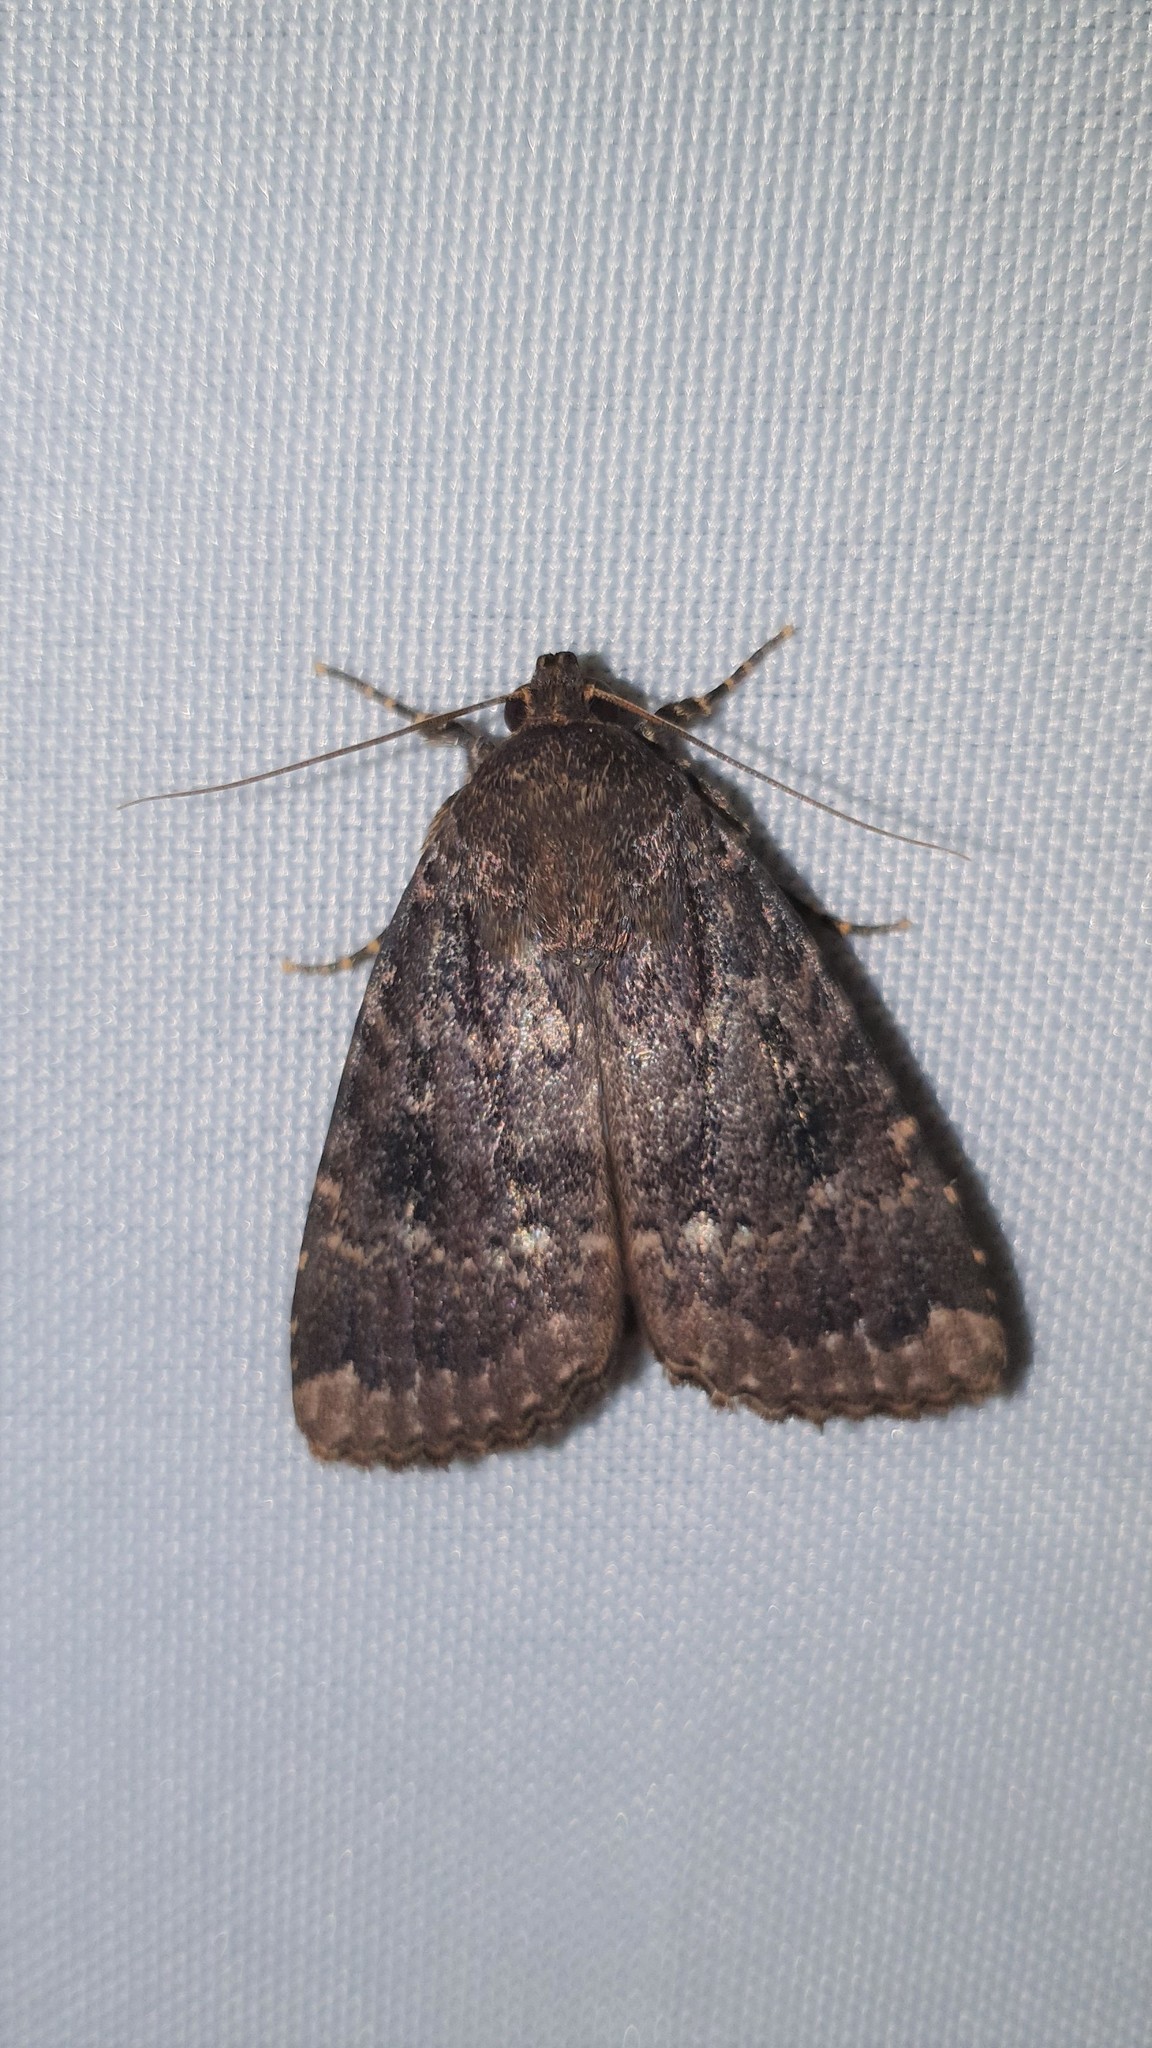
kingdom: Animalia
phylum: Arthropoda
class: Insecta
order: Lepidoptera
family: Noctuidae
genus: Amphipyra
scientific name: Amphipyra pyramidea
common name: Copper underwing
